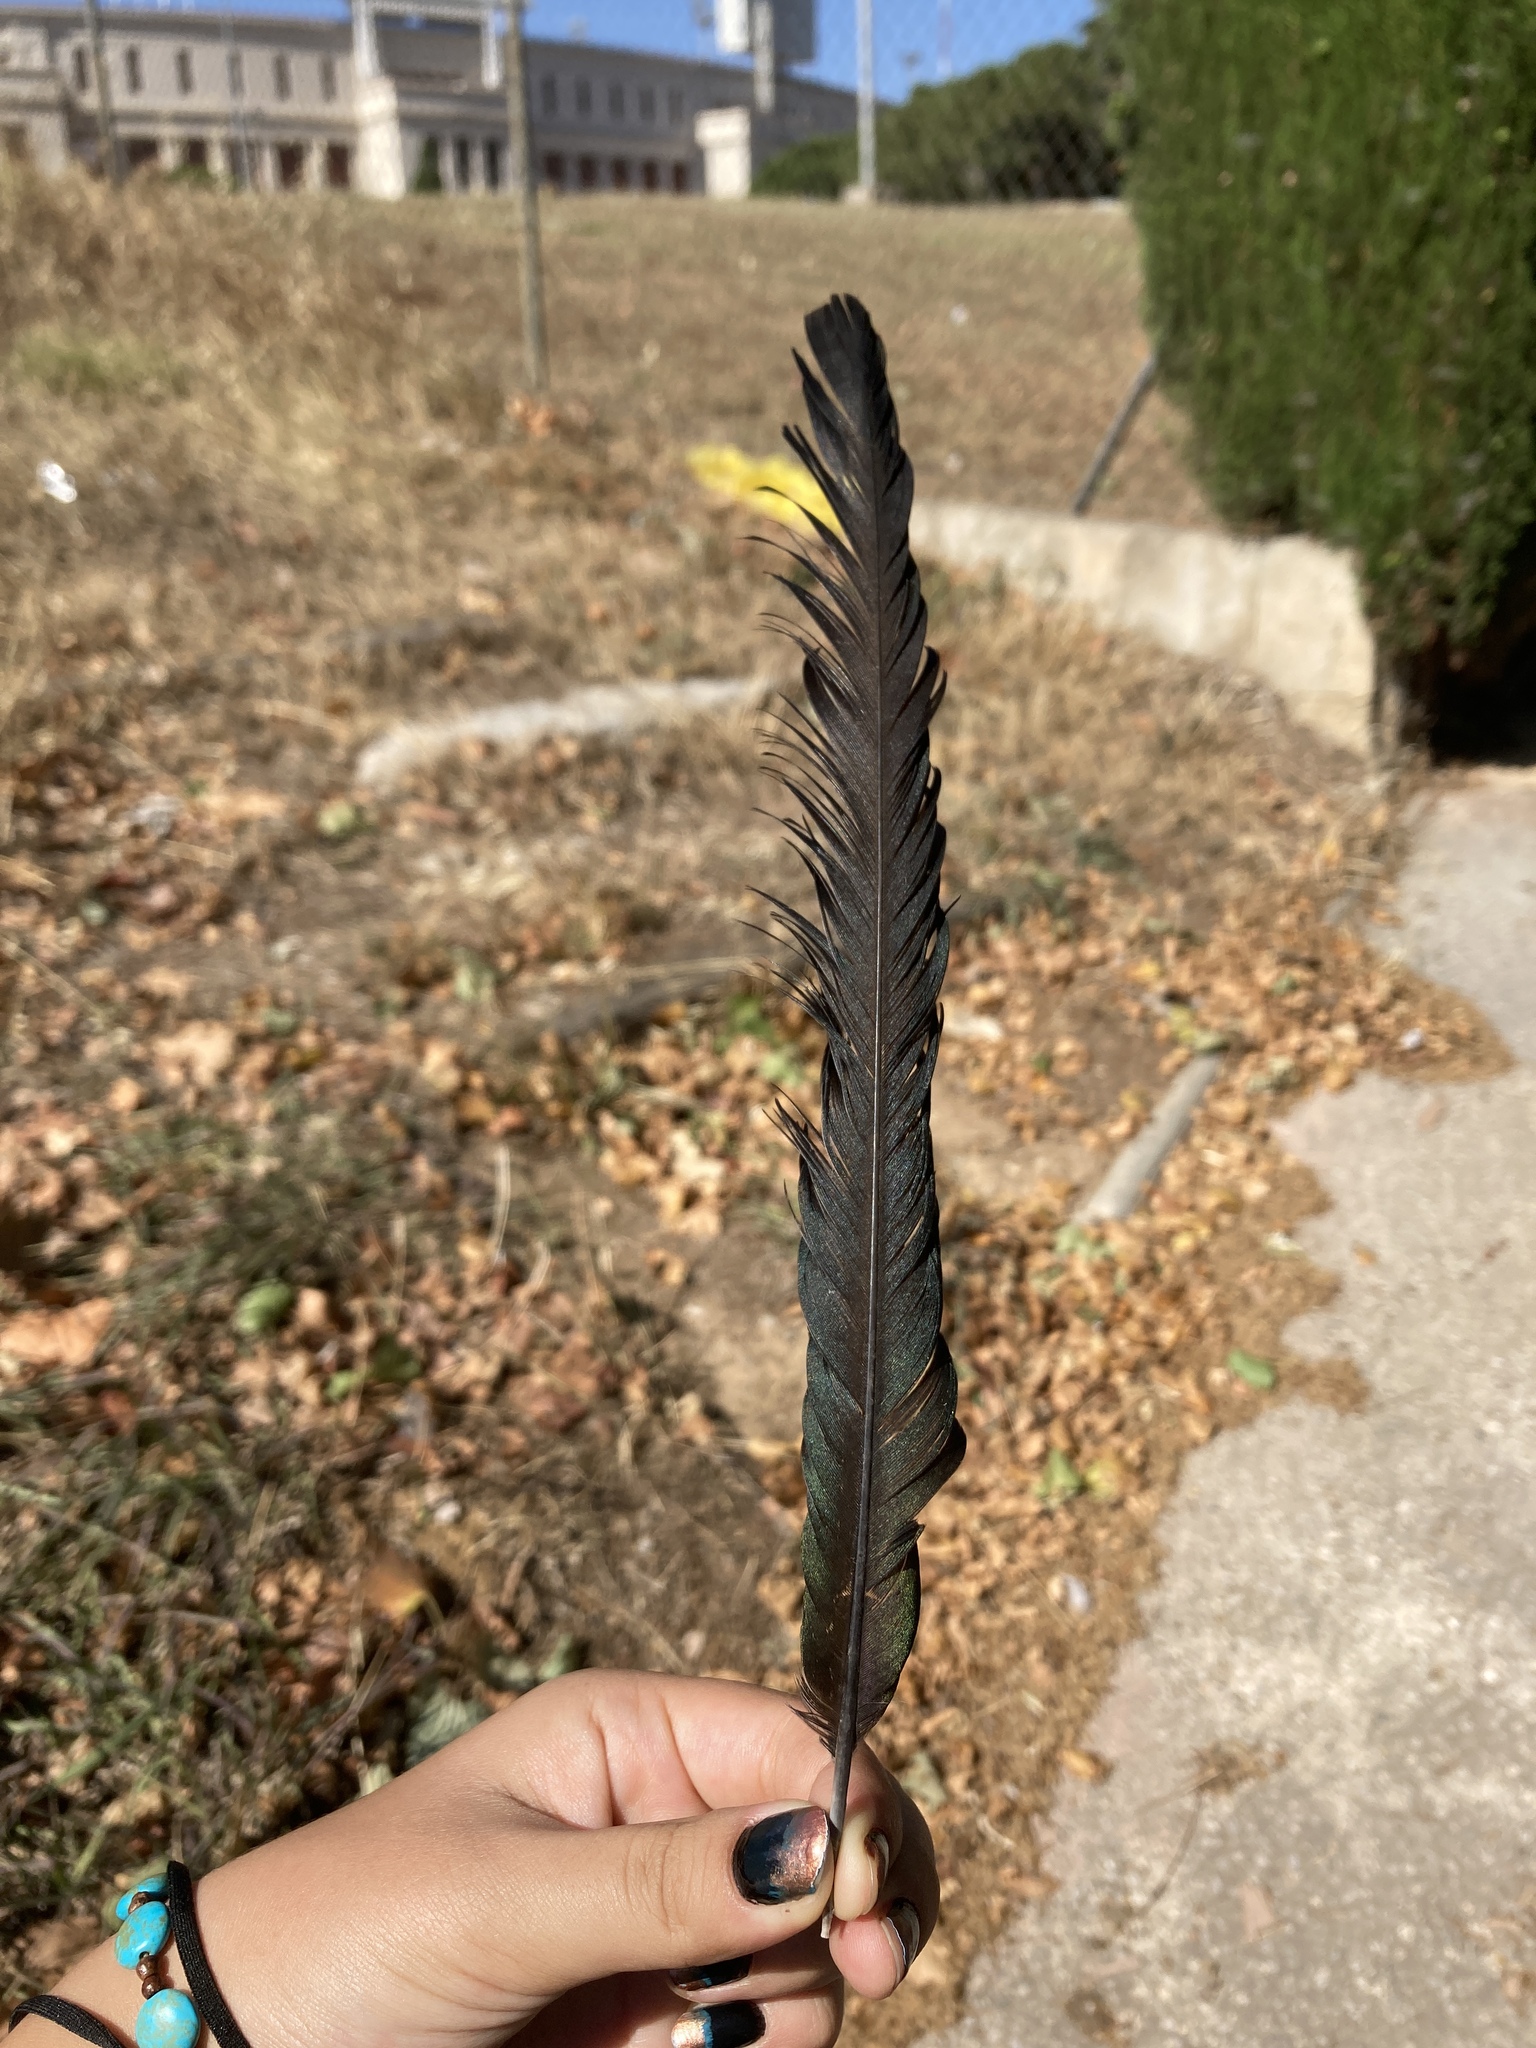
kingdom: Animalia
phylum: Chordata
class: Aves
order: Passeriformes
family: Corvidae
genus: Pica
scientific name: Pica pica
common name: Eurasian magpie
